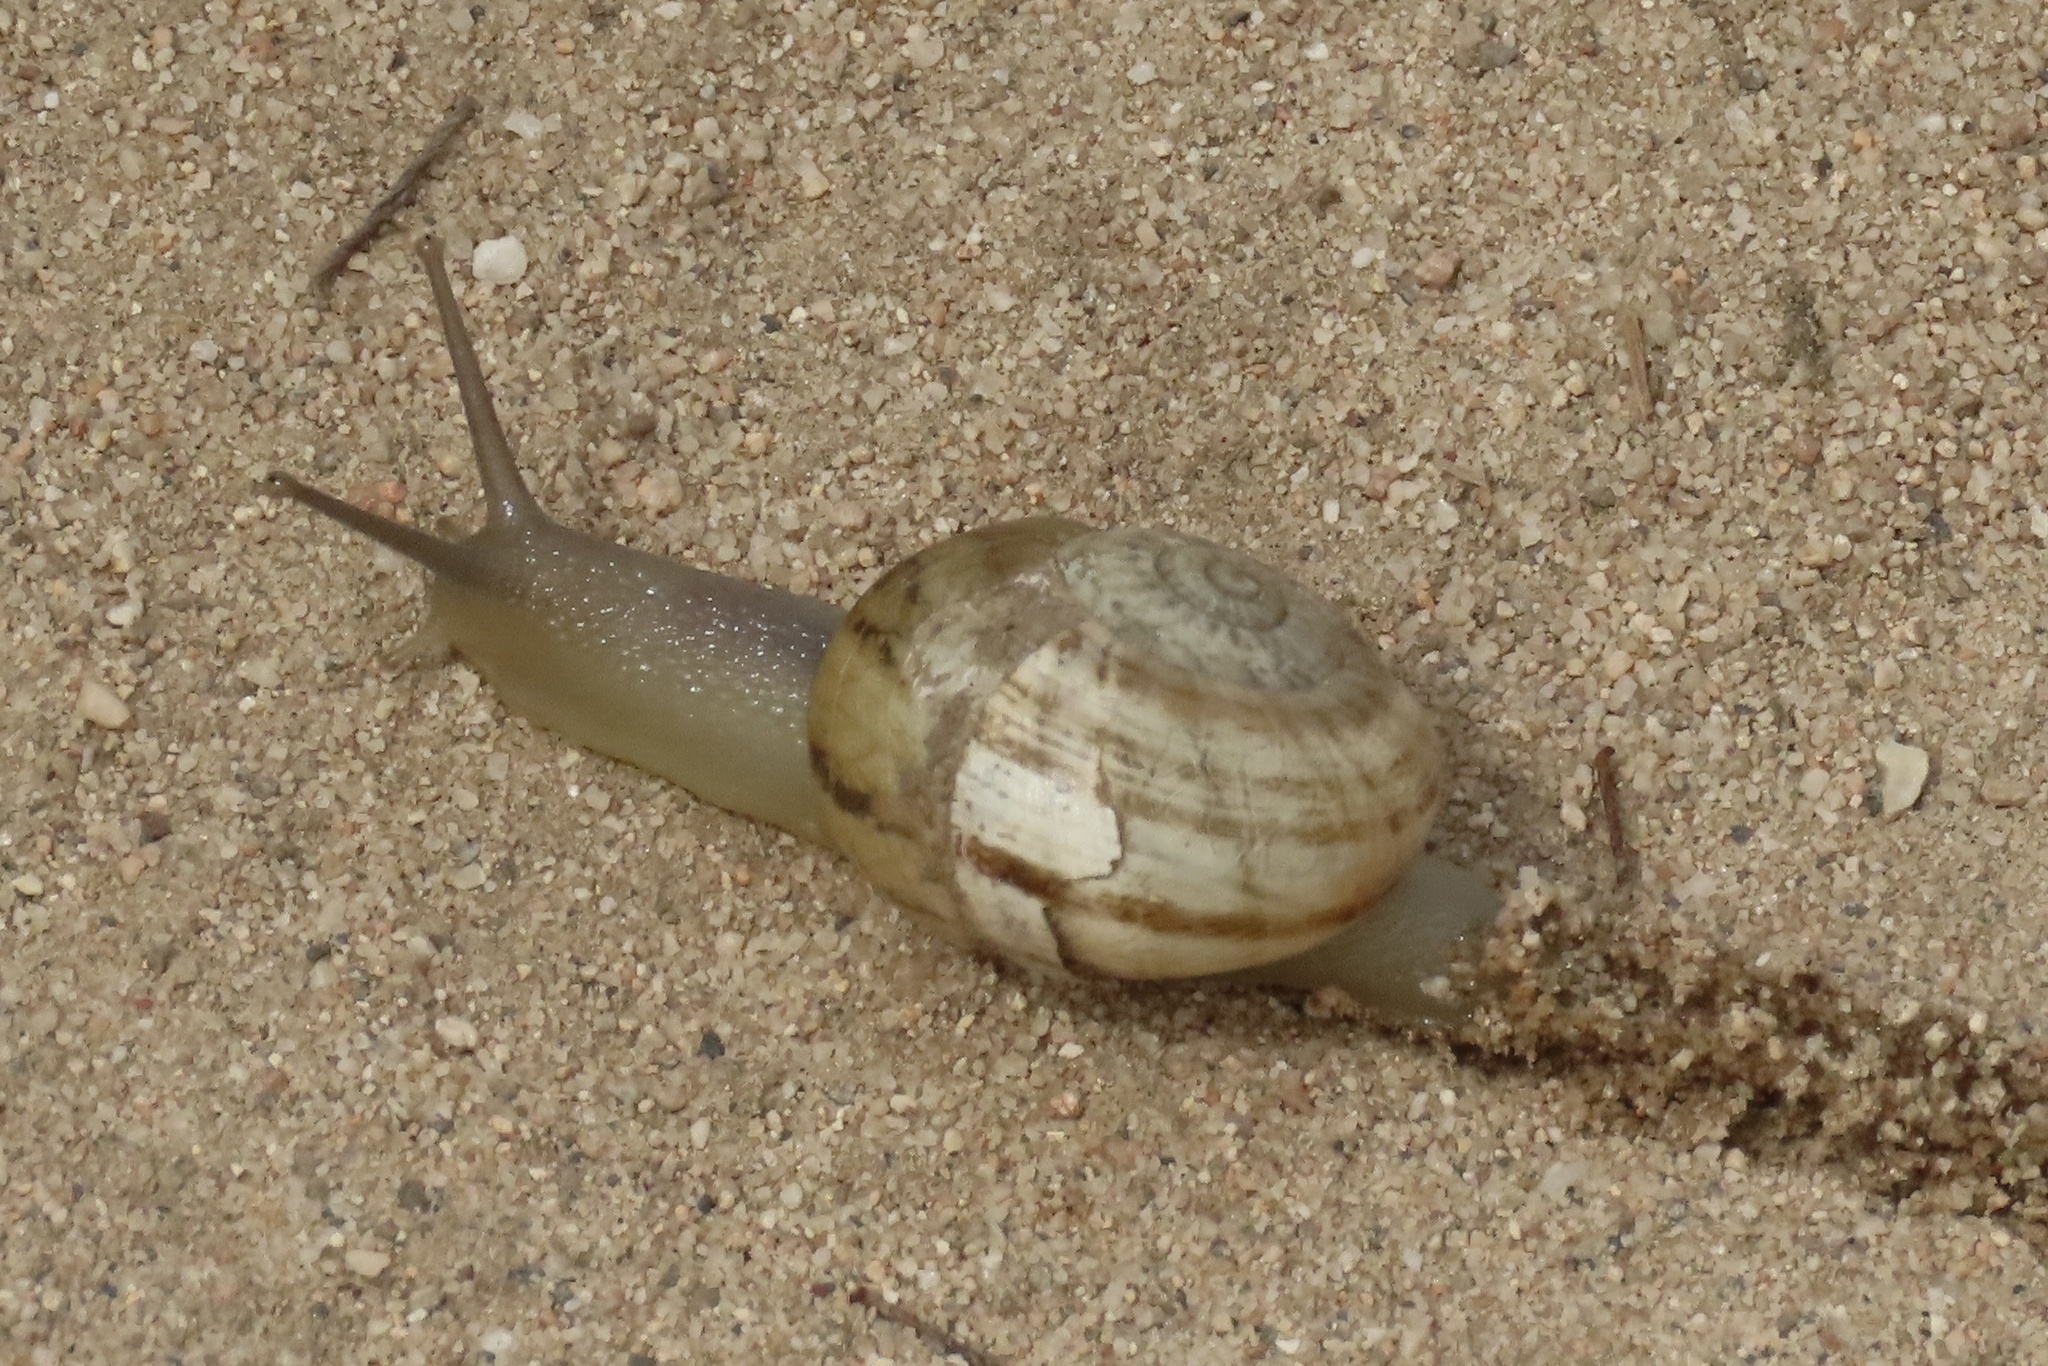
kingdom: Animalia
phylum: Mollusca
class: Gastropoda
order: Stylommatophora
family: Helicidae
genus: Otala
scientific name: Otala lactea
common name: Milk snail
